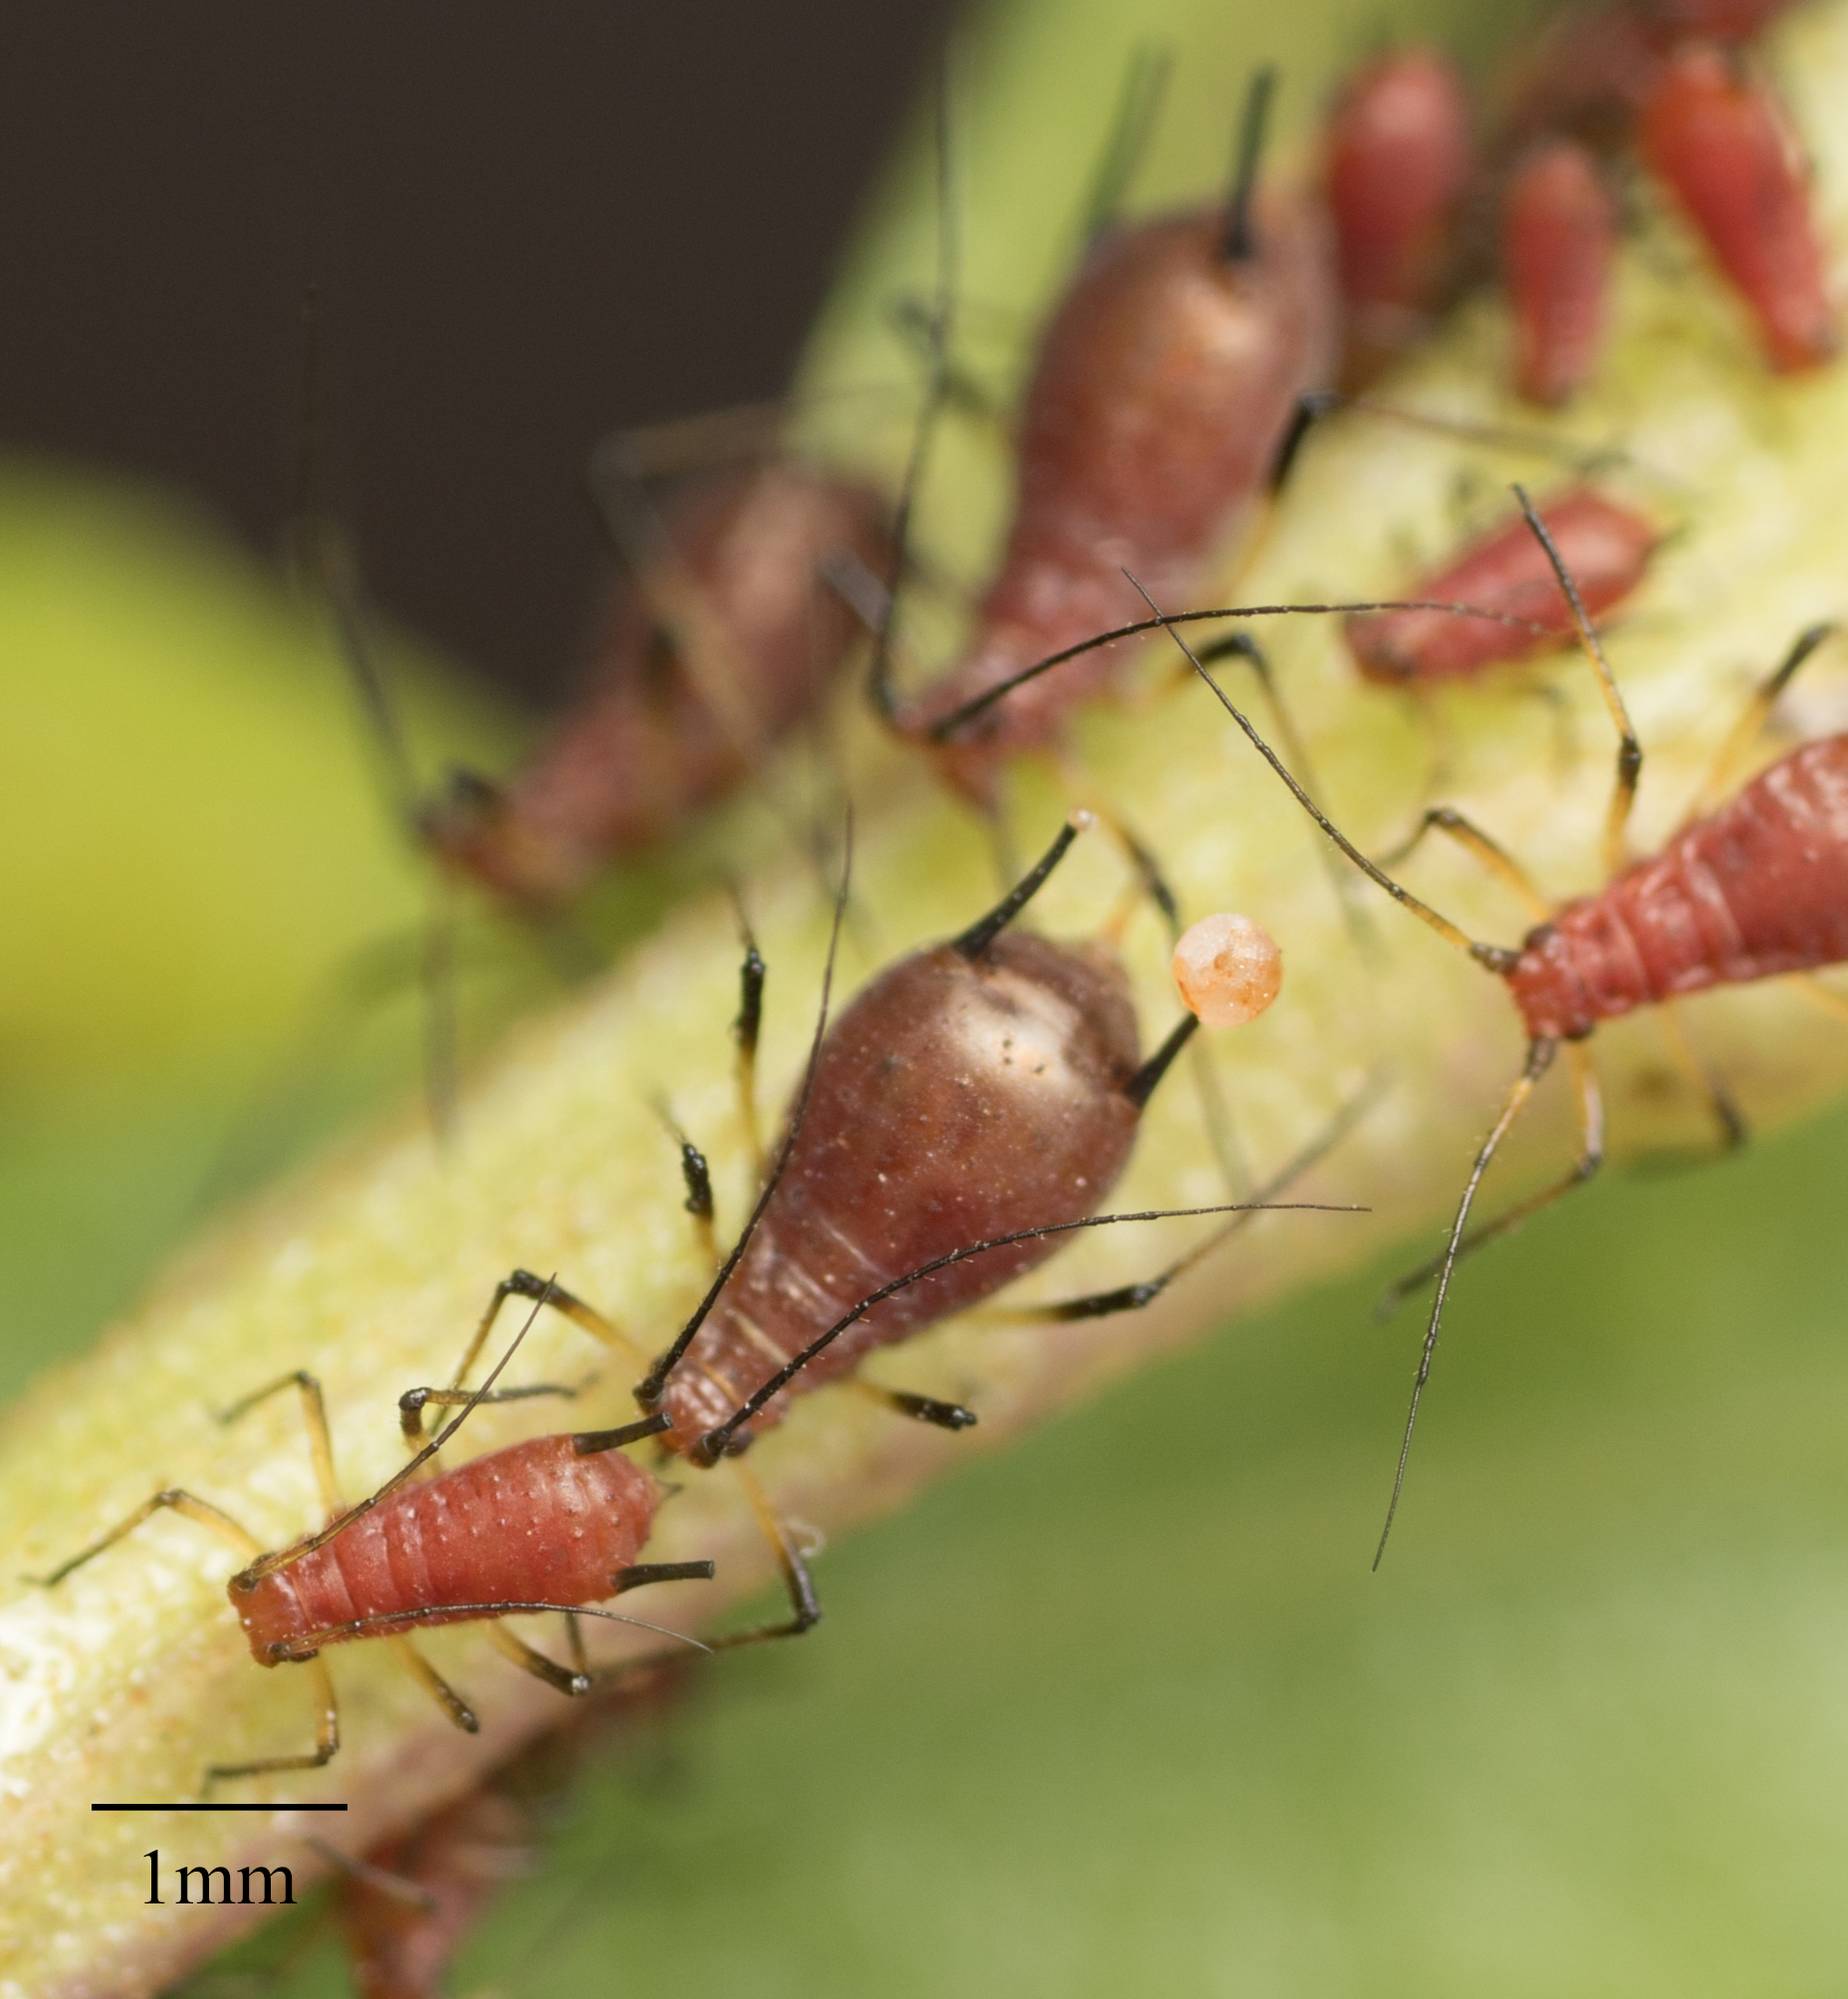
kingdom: Animalia
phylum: Arthropoda
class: Insecta
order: Hemiptera
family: Aphididae
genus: Uroleucon
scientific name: Uroleucon ambrosiae
